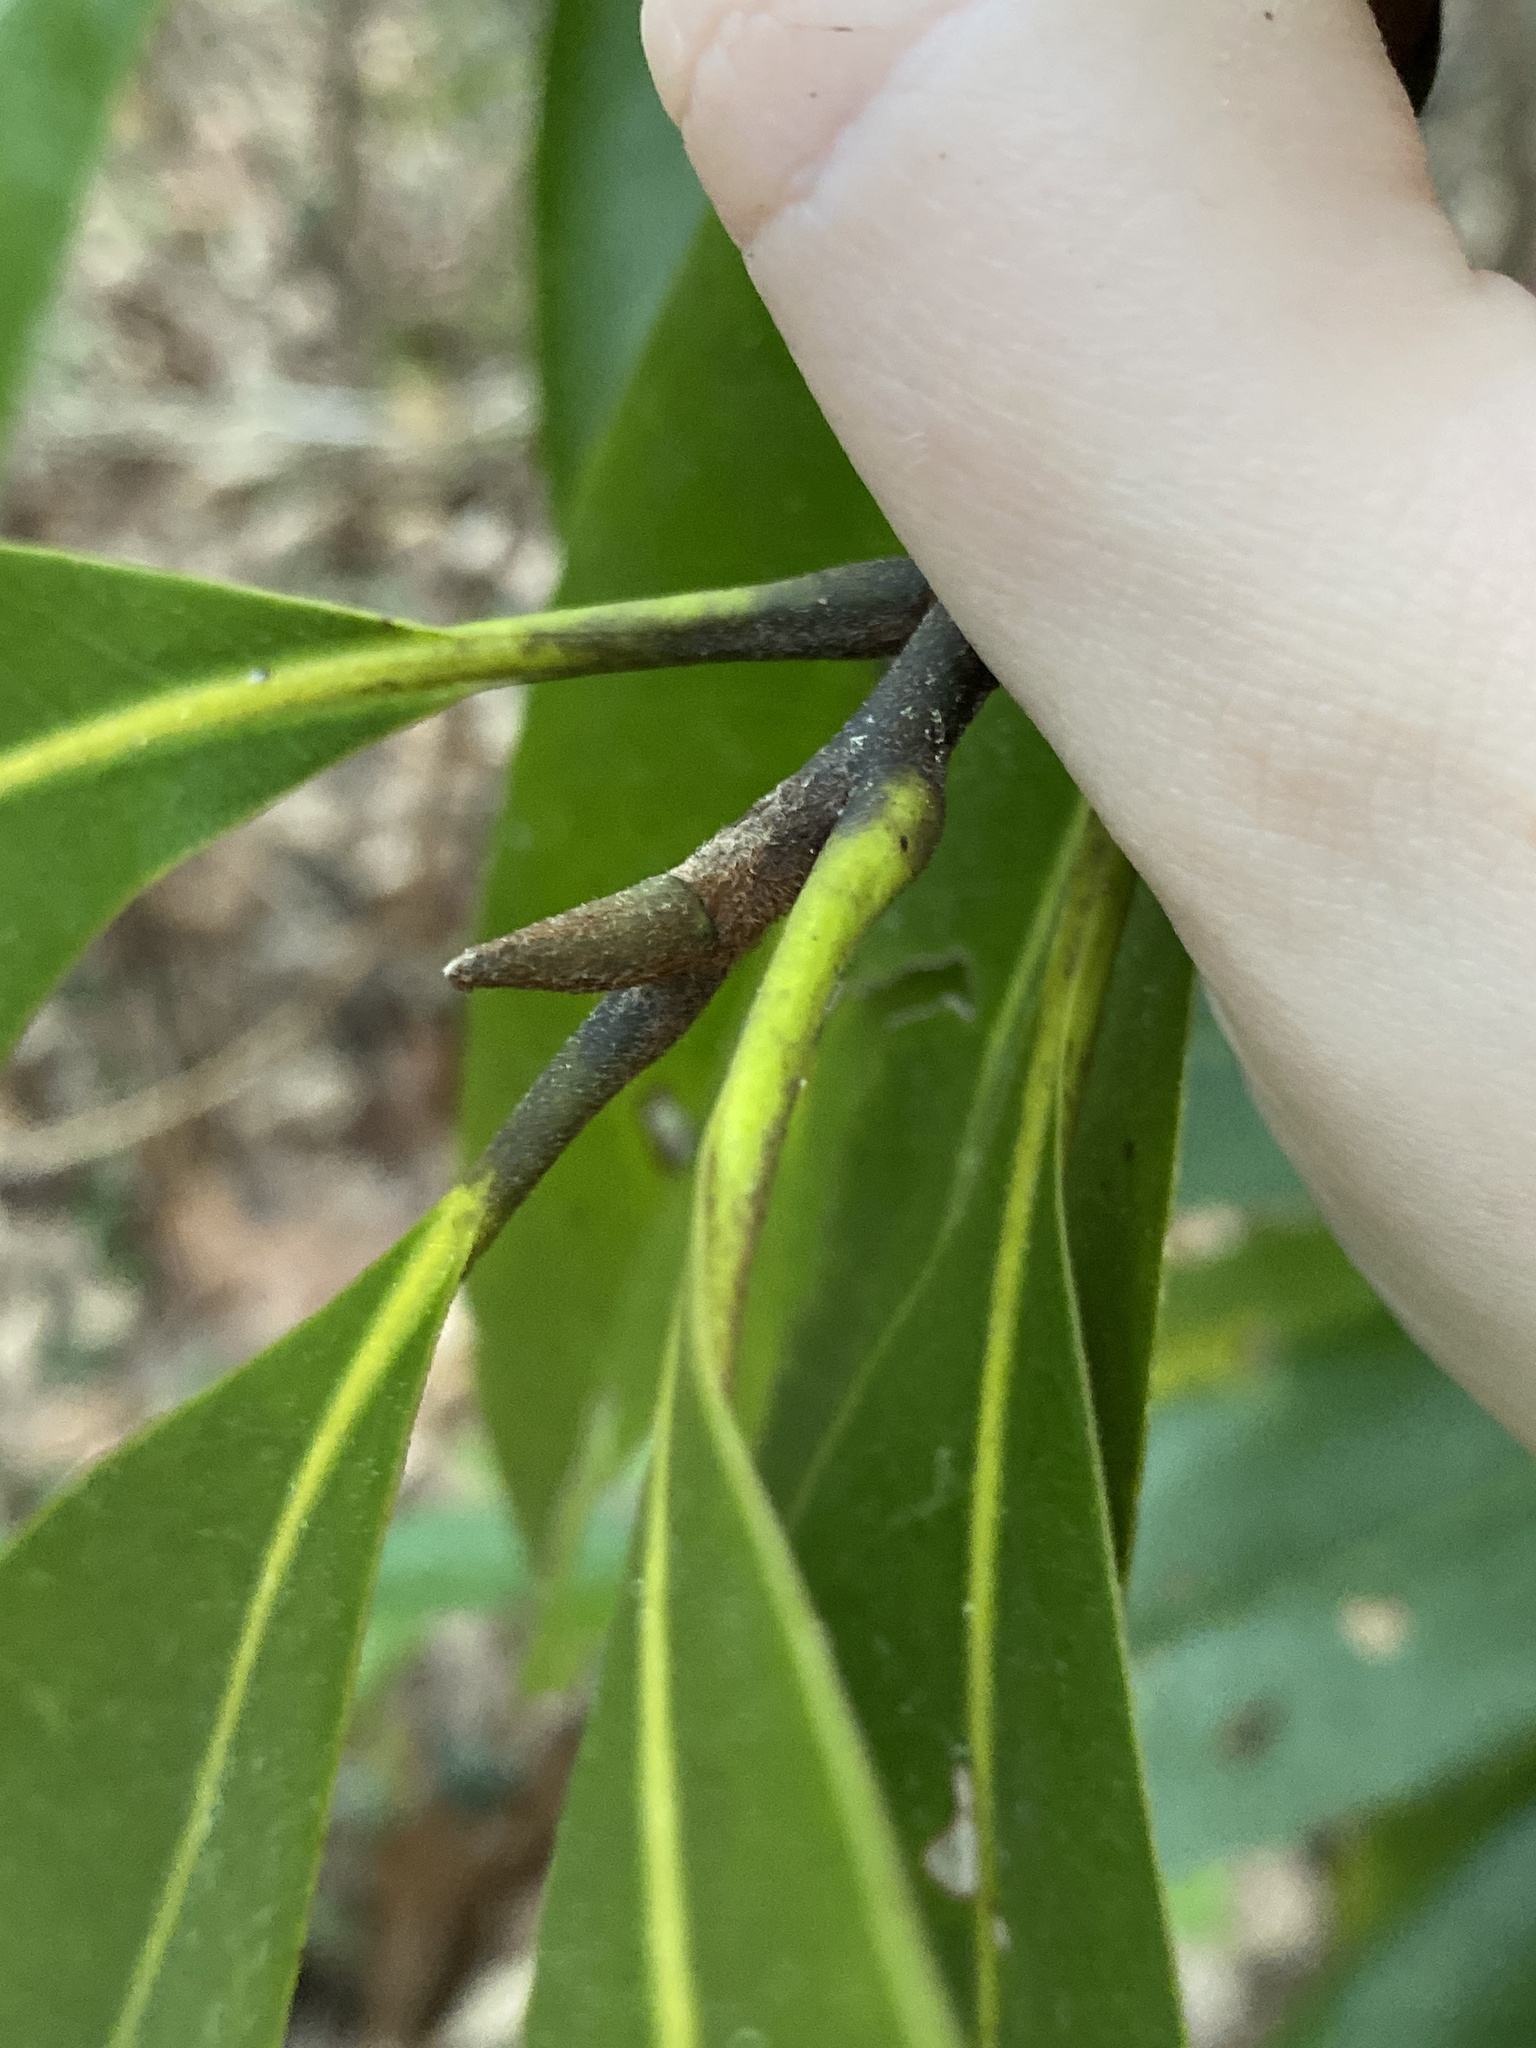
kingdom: Plantae
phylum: Tracheophyta
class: Magnoliopsida
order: Magnoliales
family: Magnoliaceae
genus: Magnolia
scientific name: Magnolia grandiflora
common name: Southern magnolia
